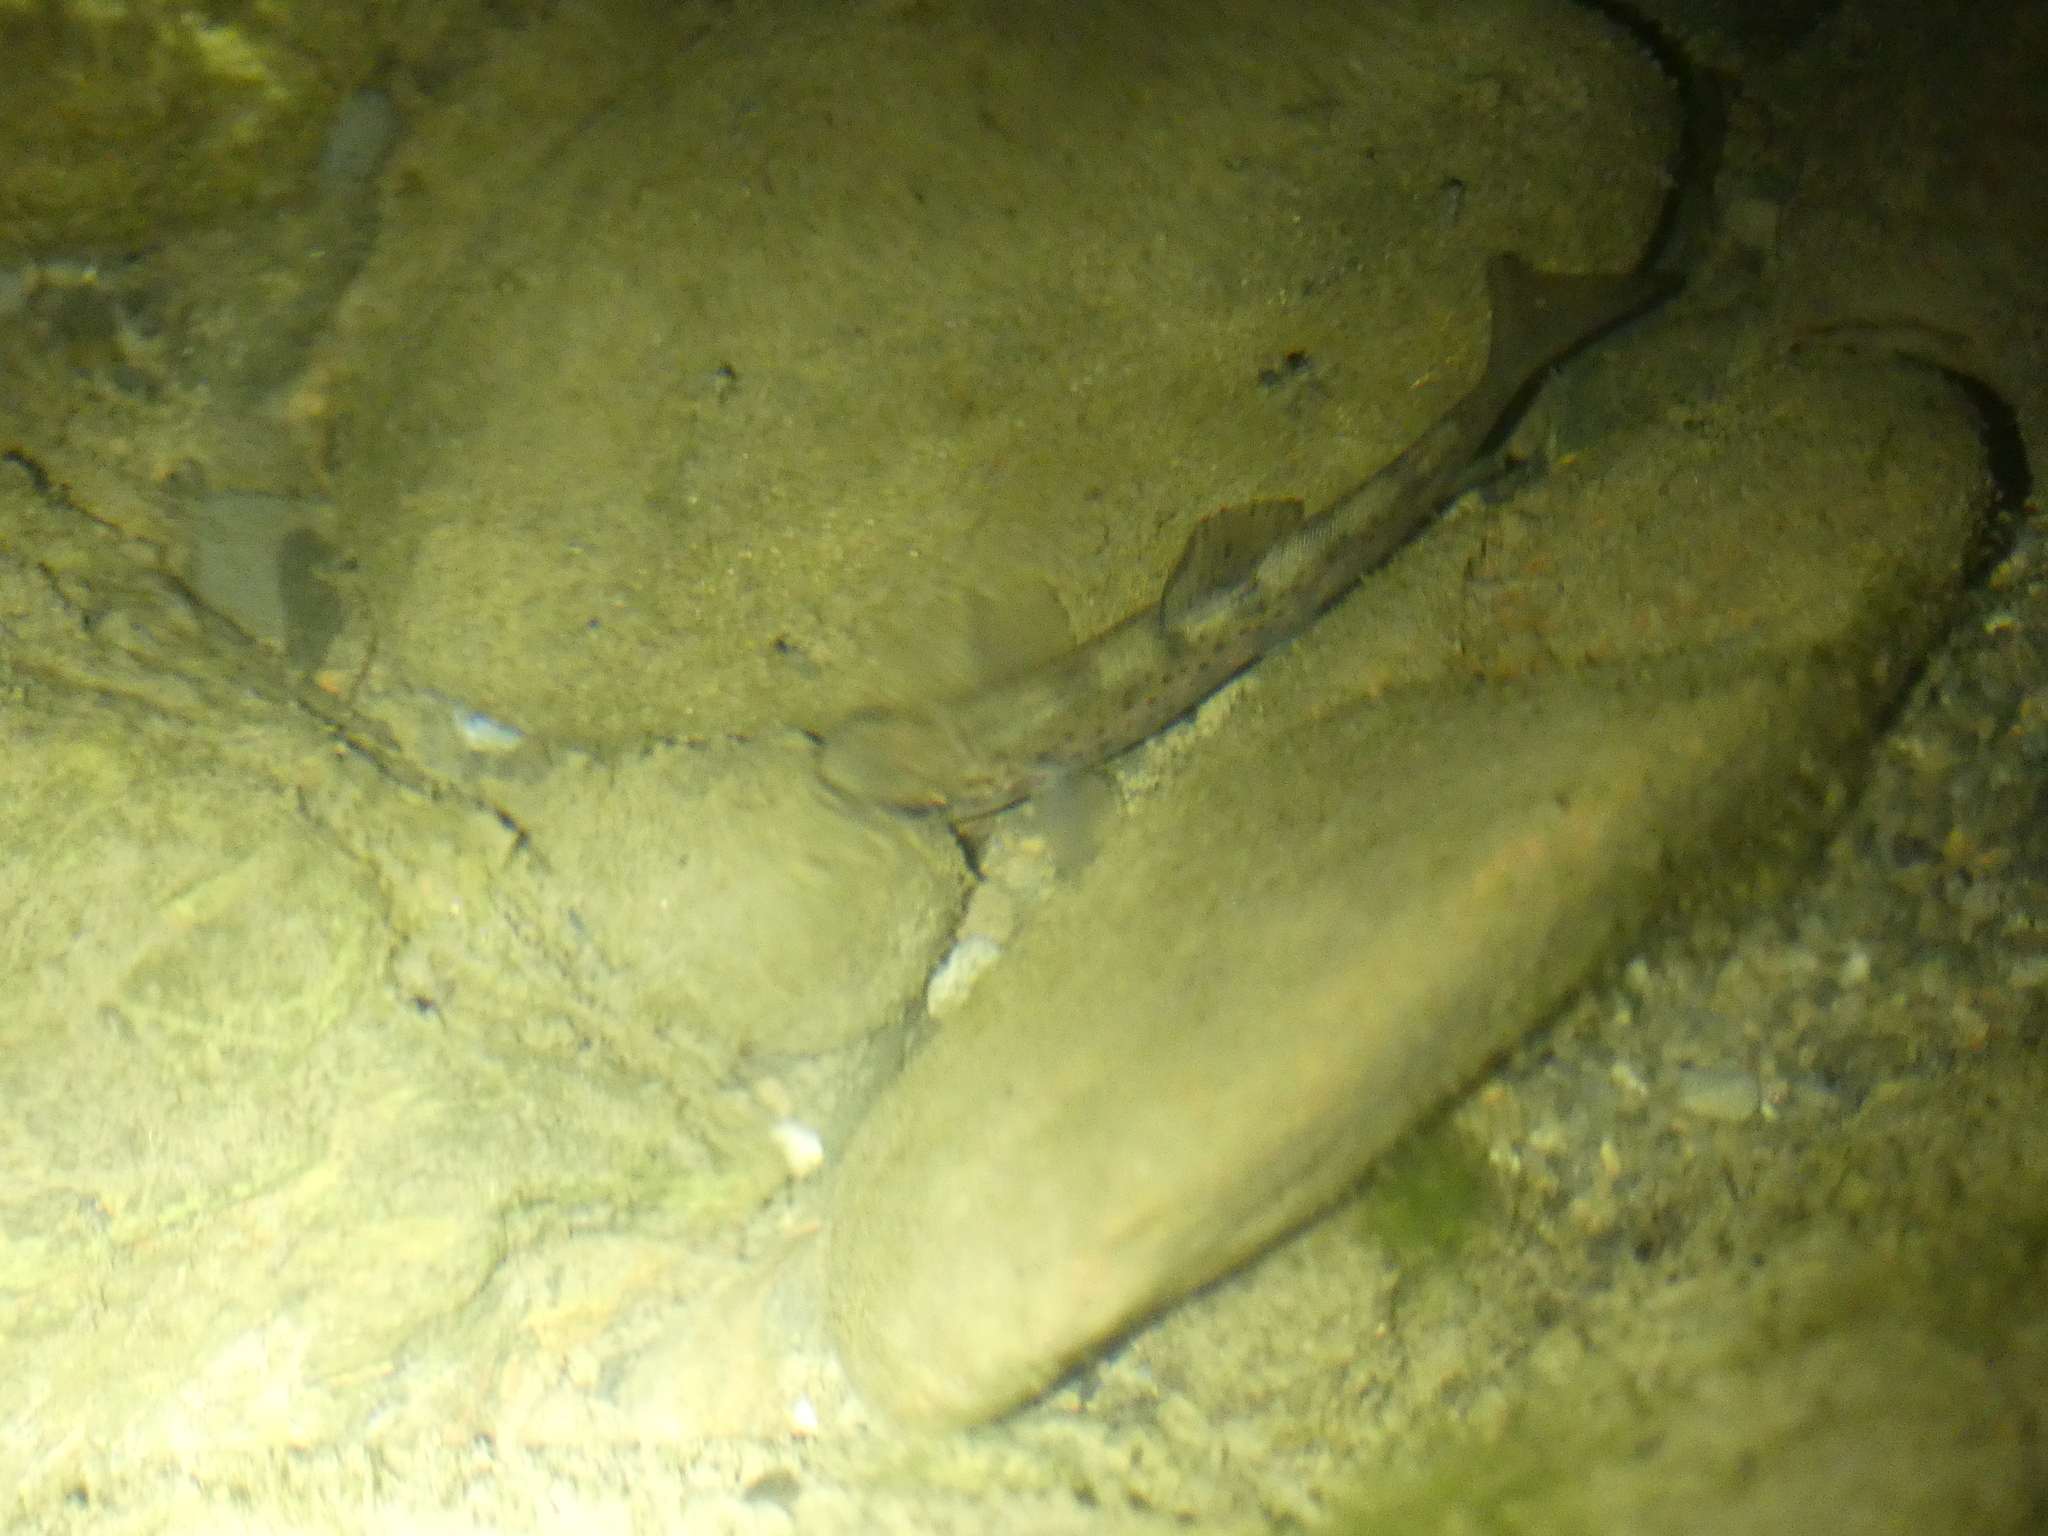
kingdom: Animalia
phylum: Chordata
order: Salmoniformes
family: Salmonidae
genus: Salmo
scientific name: Salmo trutta
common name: Brown trout
